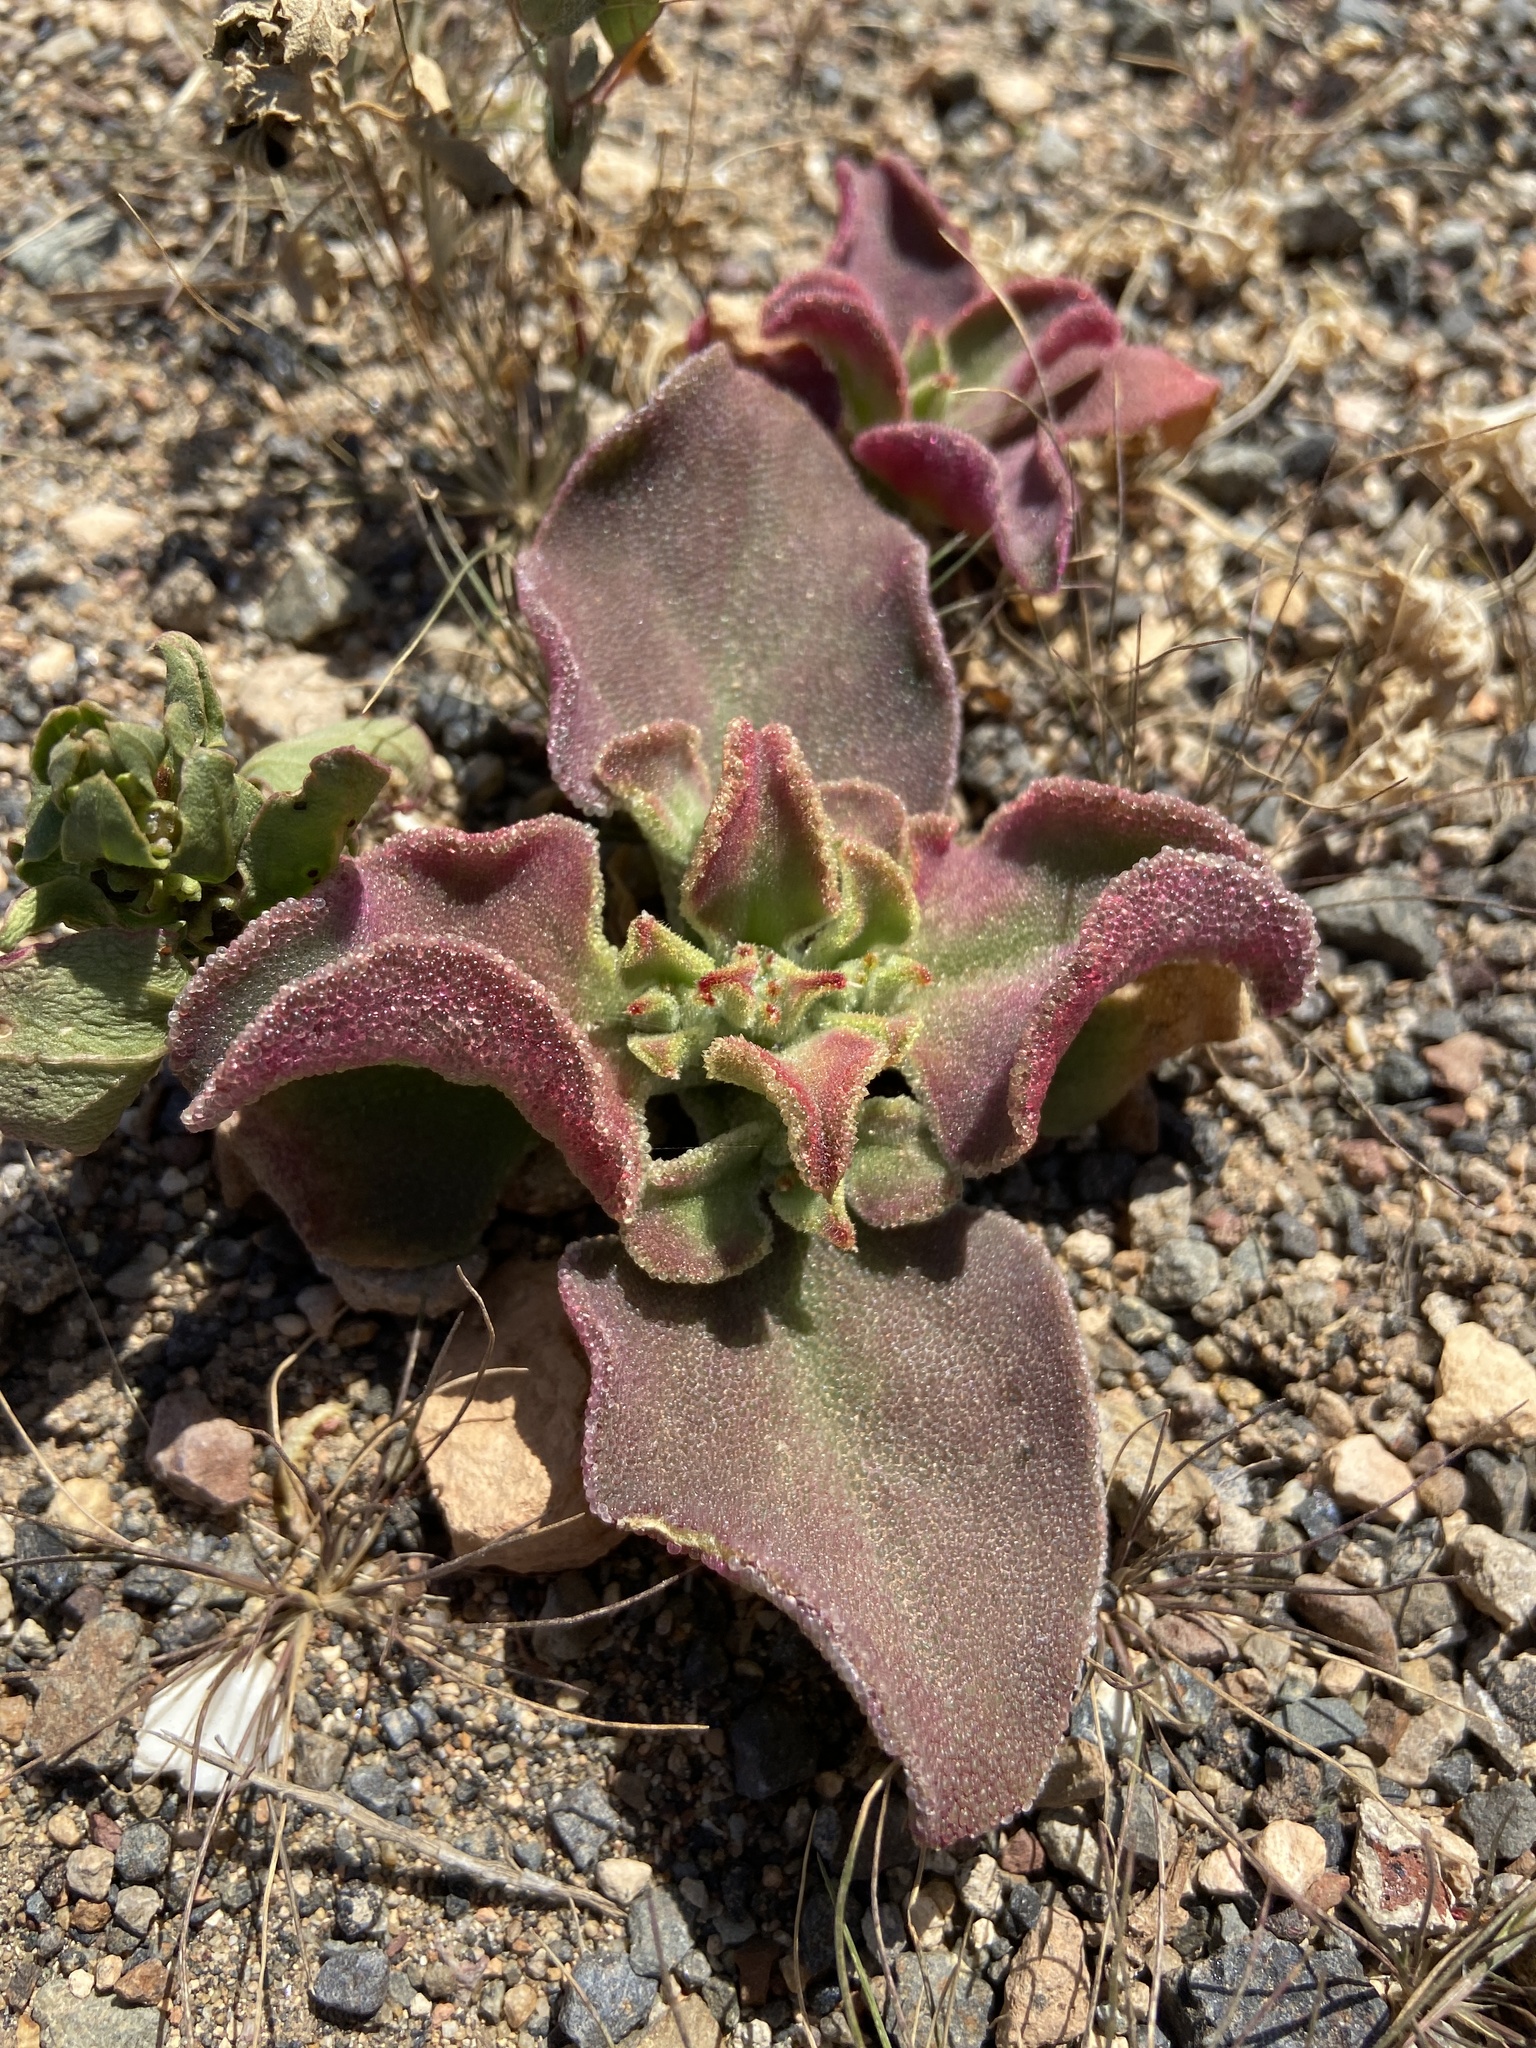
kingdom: Plantae
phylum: Tracheophyta
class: Magnoliopsida
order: Caryophyllales
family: Aizoaceae
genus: Mesembryanthemum
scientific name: Mesembryanthemum crystallinum
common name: Common iceplant
